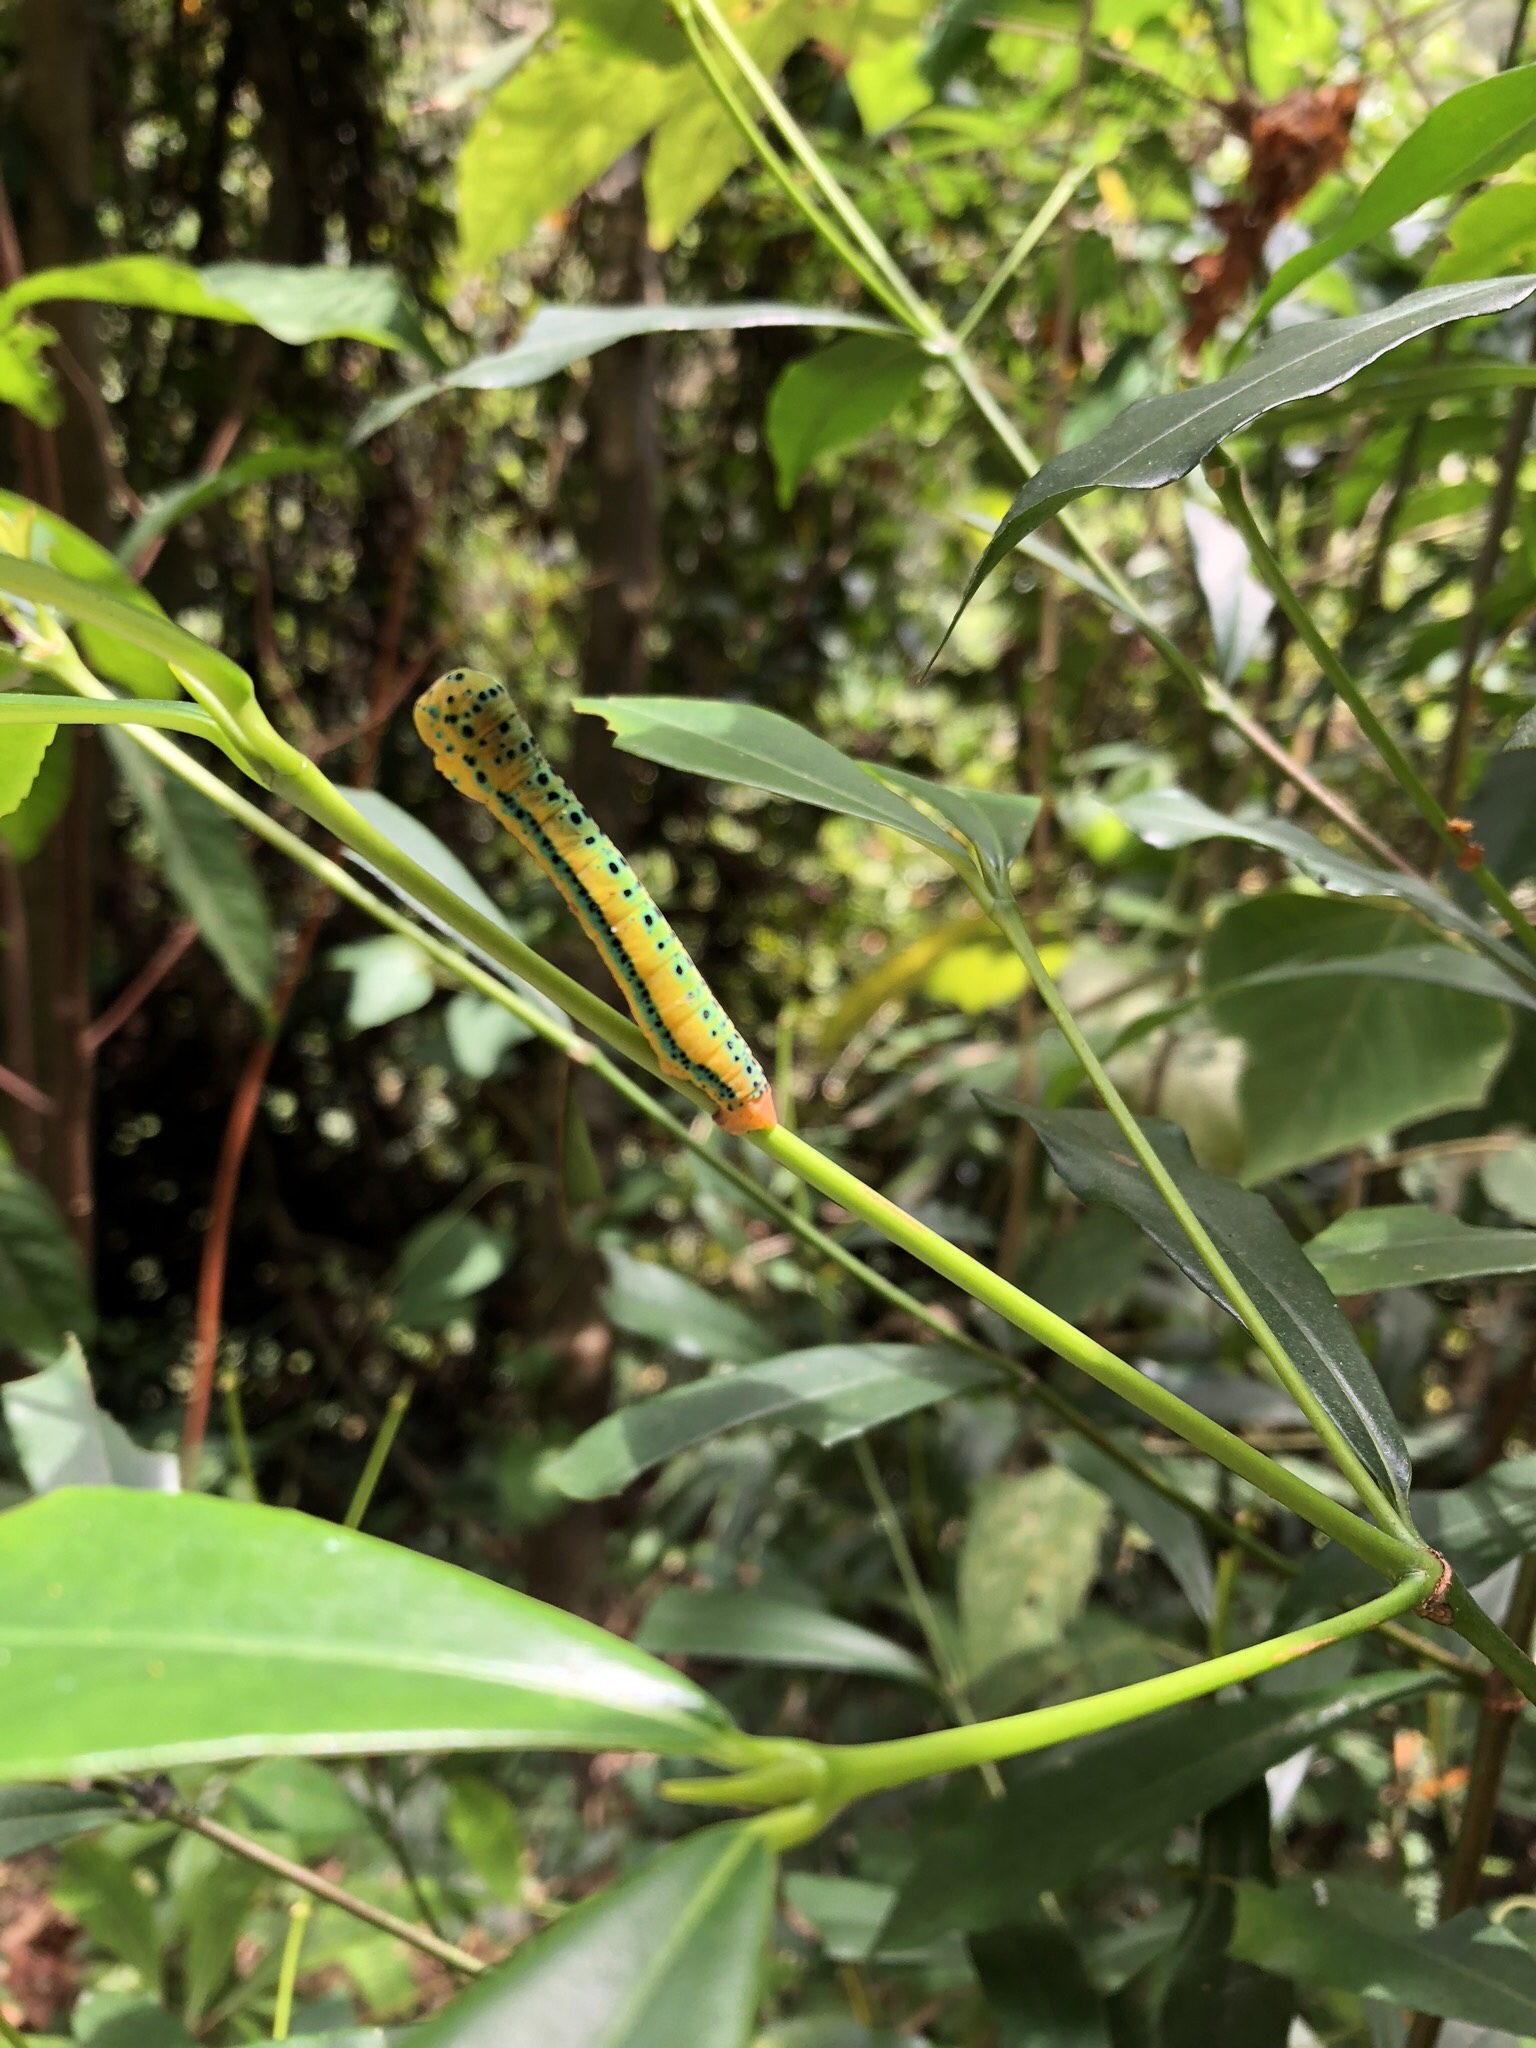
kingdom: Animalia
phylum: Arthropoda
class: Insecta
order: Lepidoptera
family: Geometridae
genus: Dysphania
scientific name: Dysphania militaris
